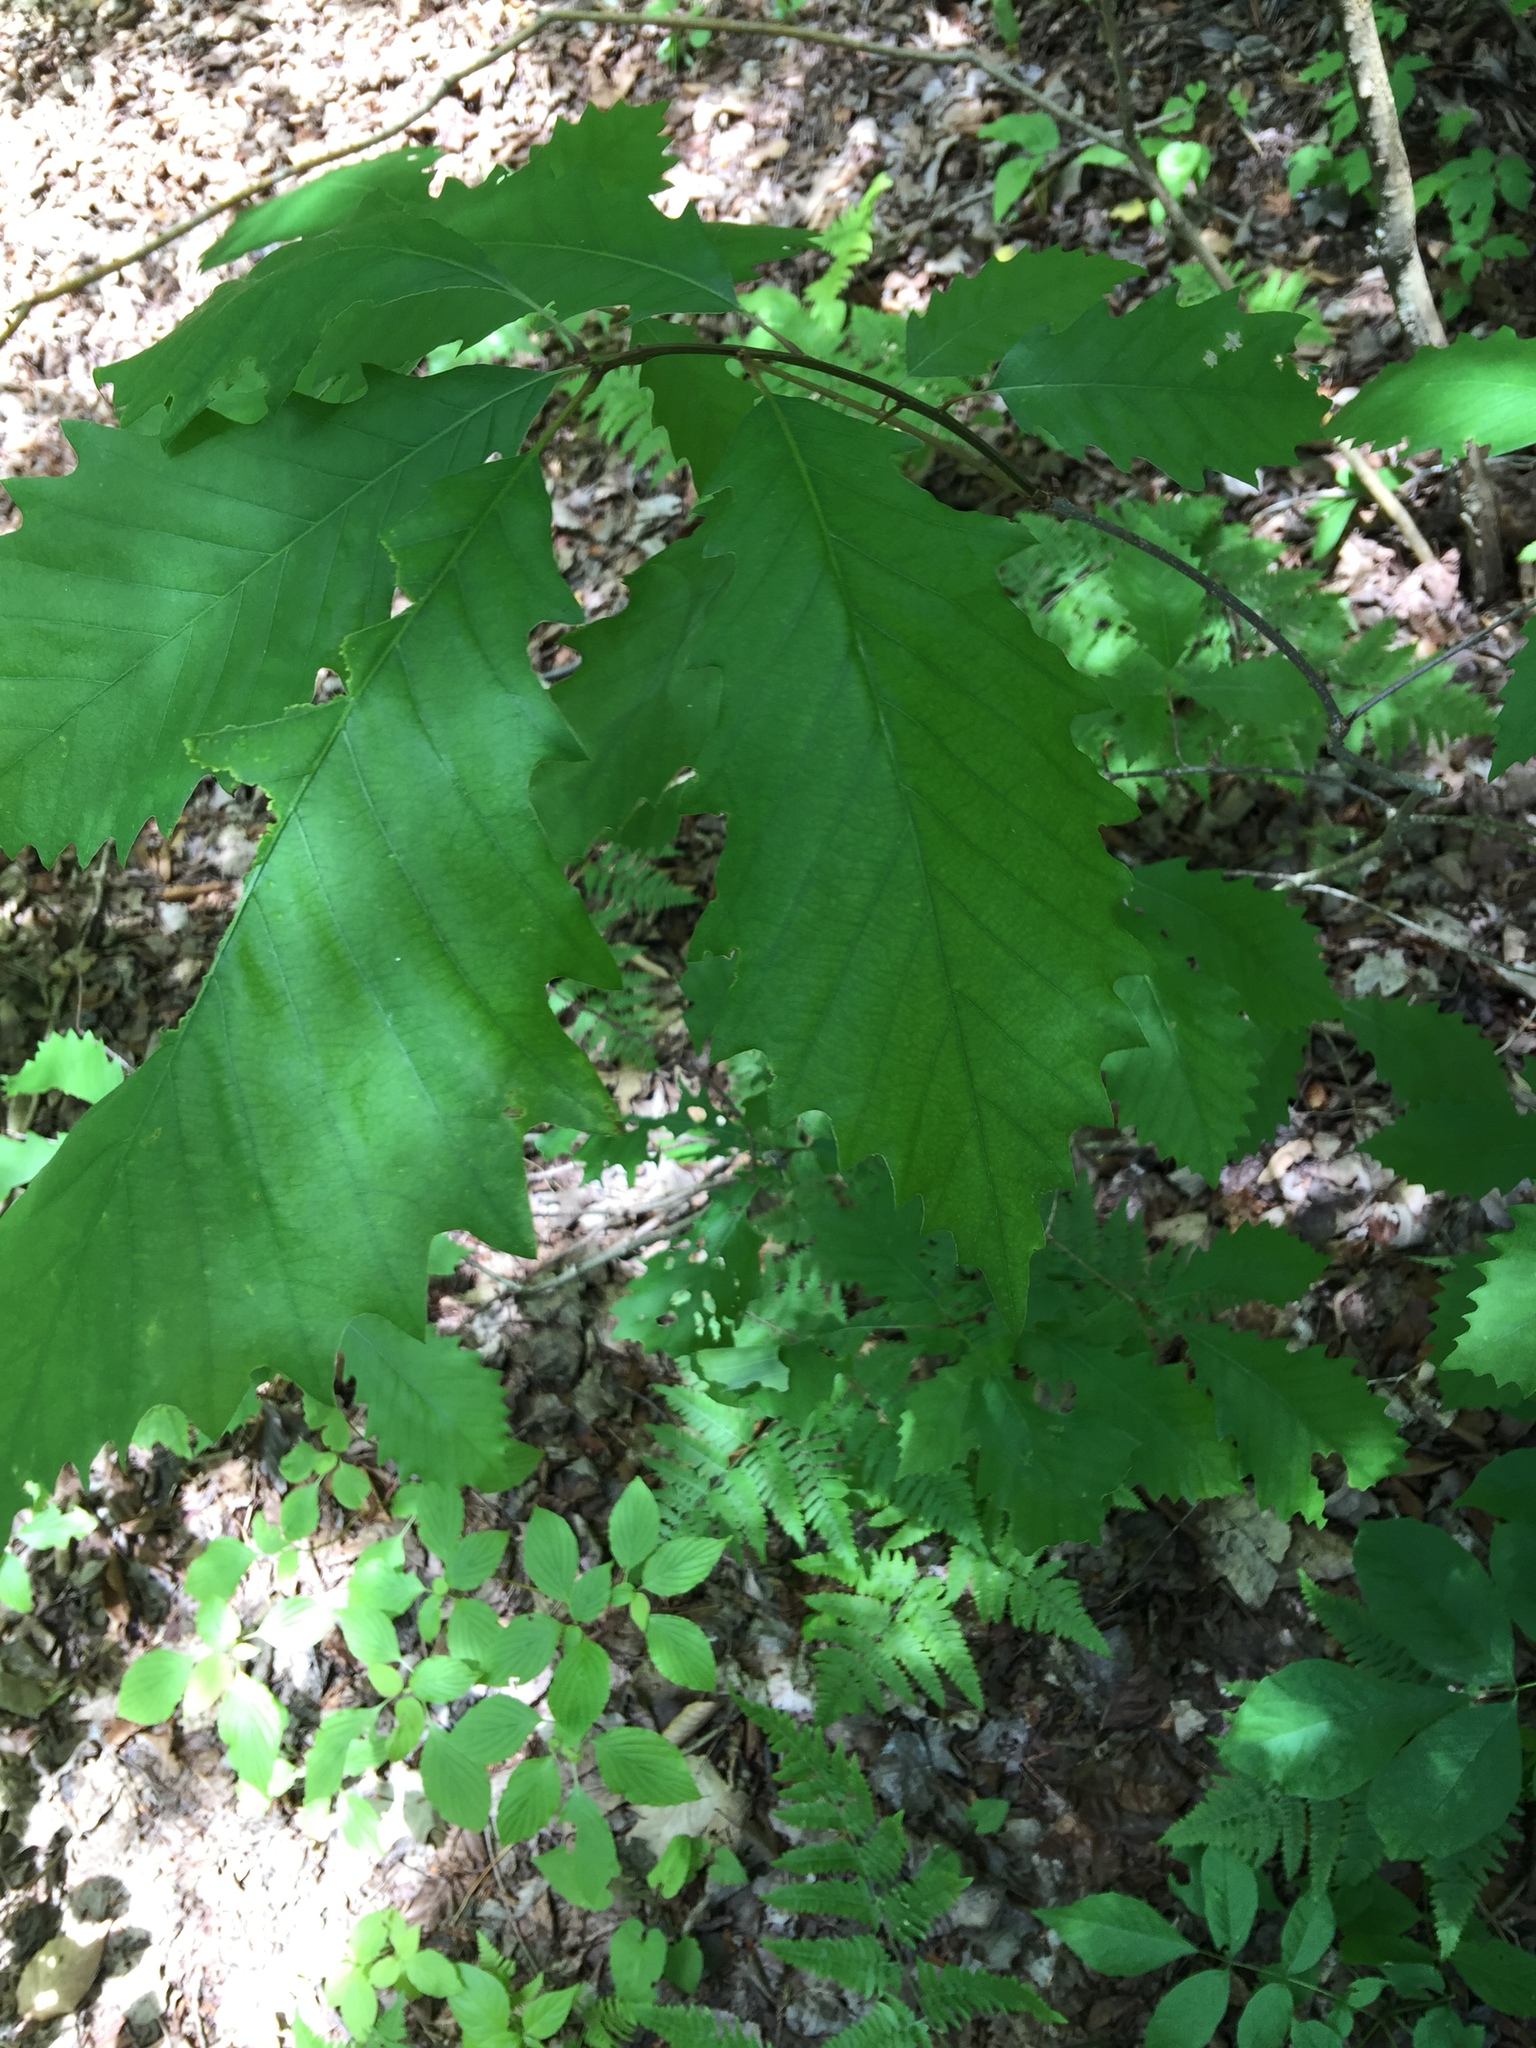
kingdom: Plantae
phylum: Tracheophyta
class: Magnoliopsida
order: Fagales
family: Fagaceae
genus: Quercus
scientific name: Quercus muehlenbergii
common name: Chinkapin oak
